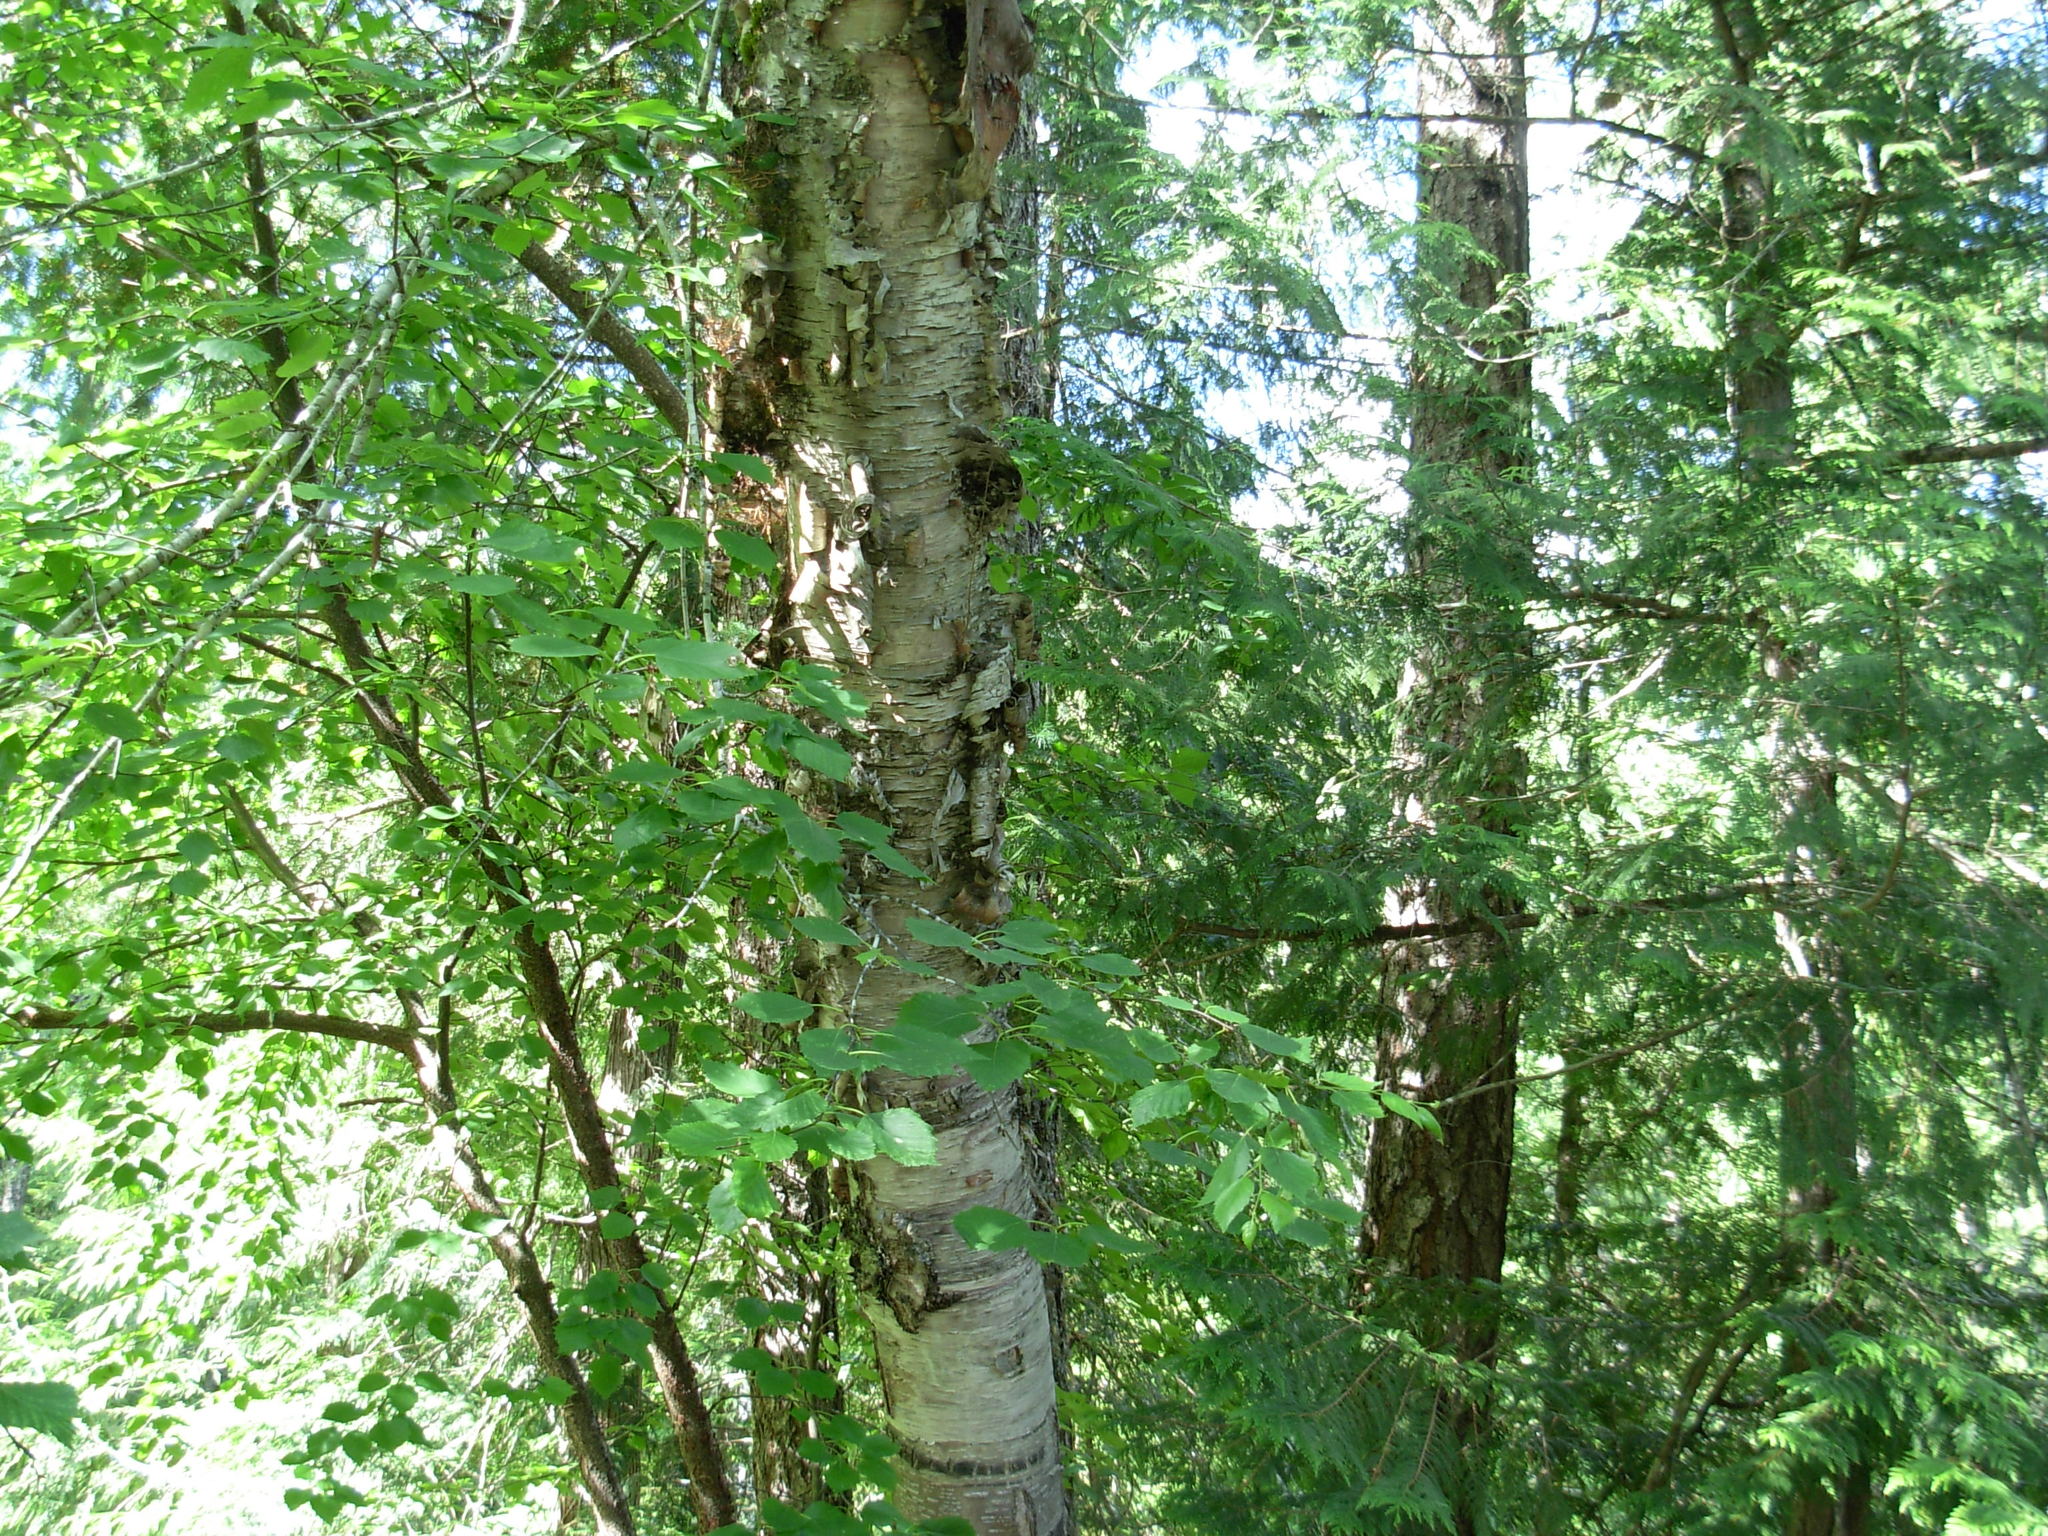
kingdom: Plantae
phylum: Tracheophyta
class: Magnoliopsida
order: Fagales
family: Betulaceae
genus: Betula
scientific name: Betula papyrifera
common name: Paper birch
